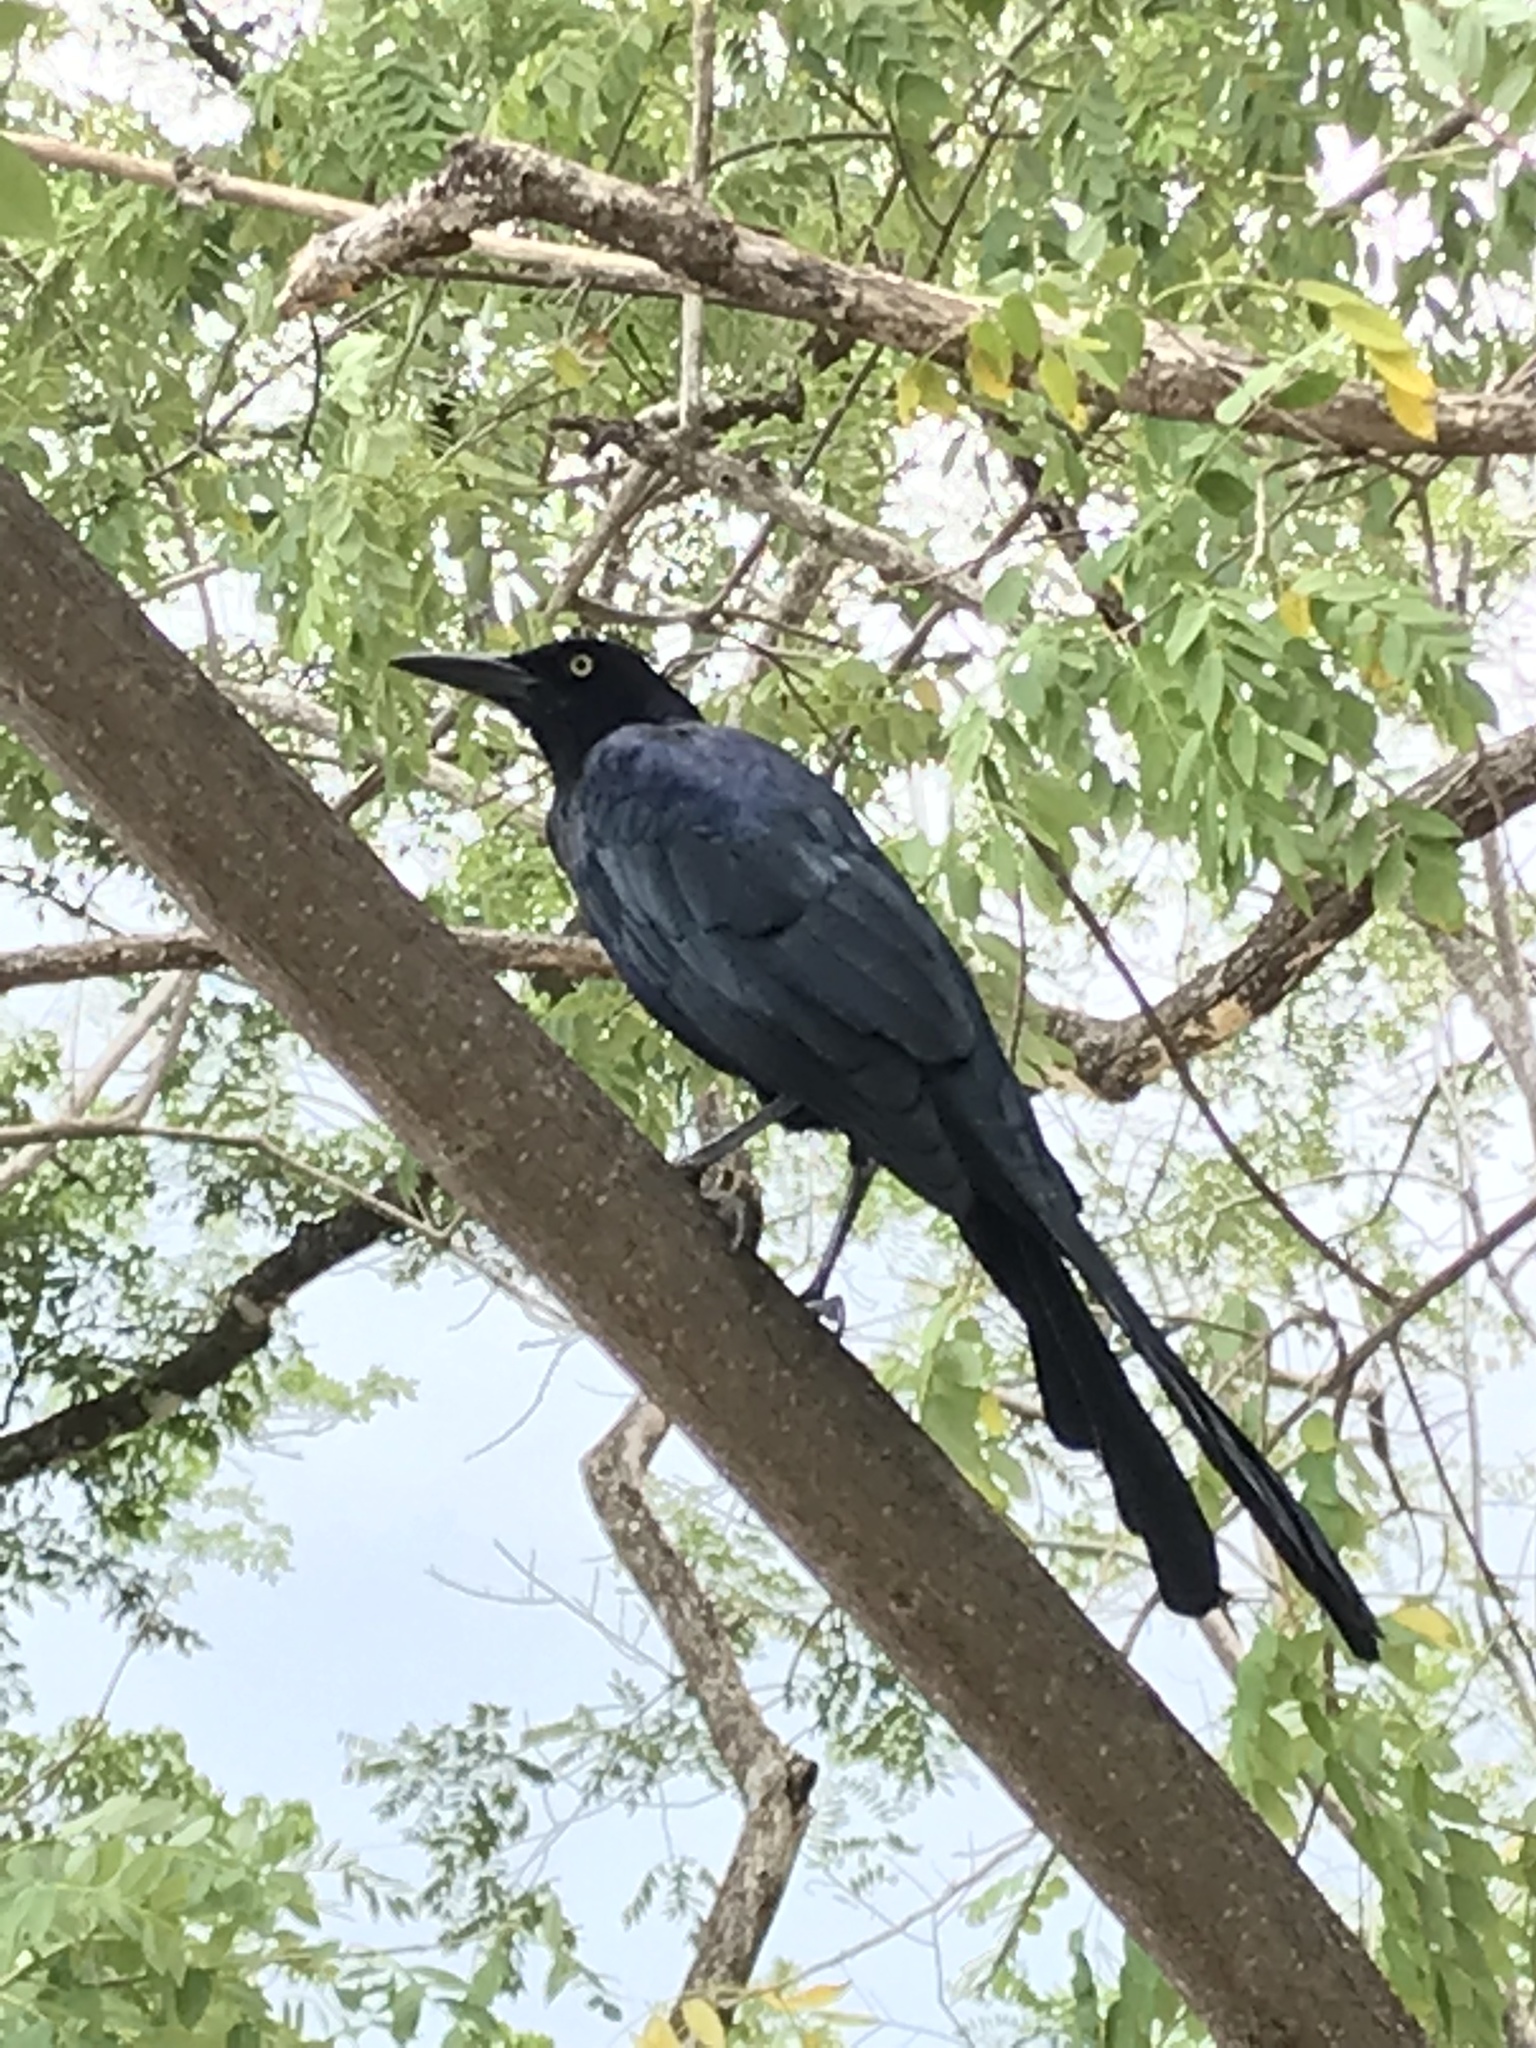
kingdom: Animalia
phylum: Chordata
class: Aves
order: Passeriformes
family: Icteridae
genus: Quiscalus
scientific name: Quiscalus mexicanus
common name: Great-tailed grackle
